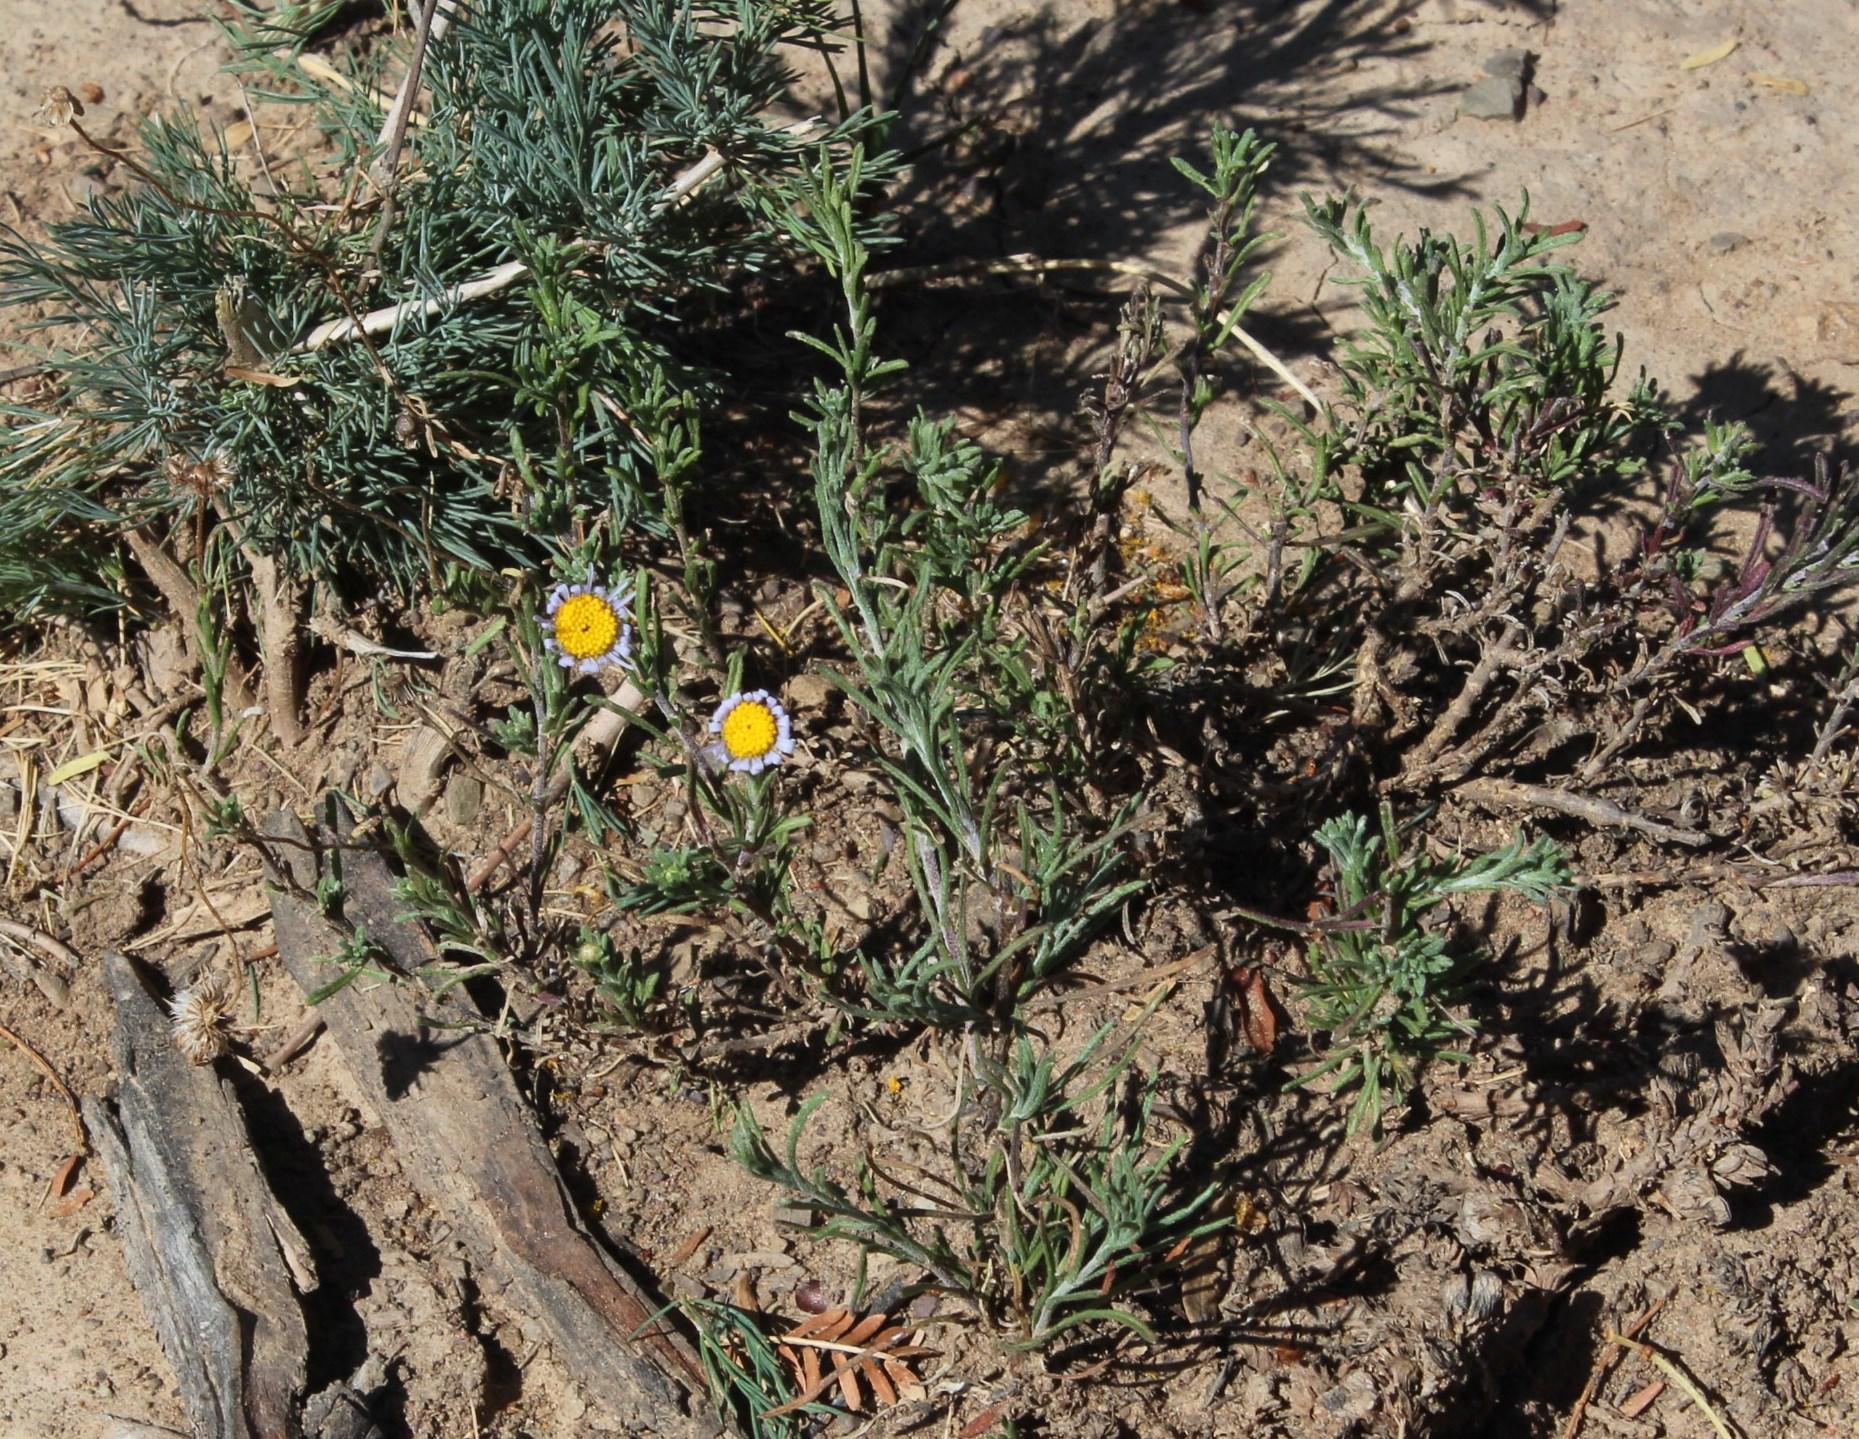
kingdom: Plantae
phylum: Tracheophyta
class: Magnoliopsida
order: Asterales
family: Asteraceae
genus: Felicia
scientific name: Felicia muricata
